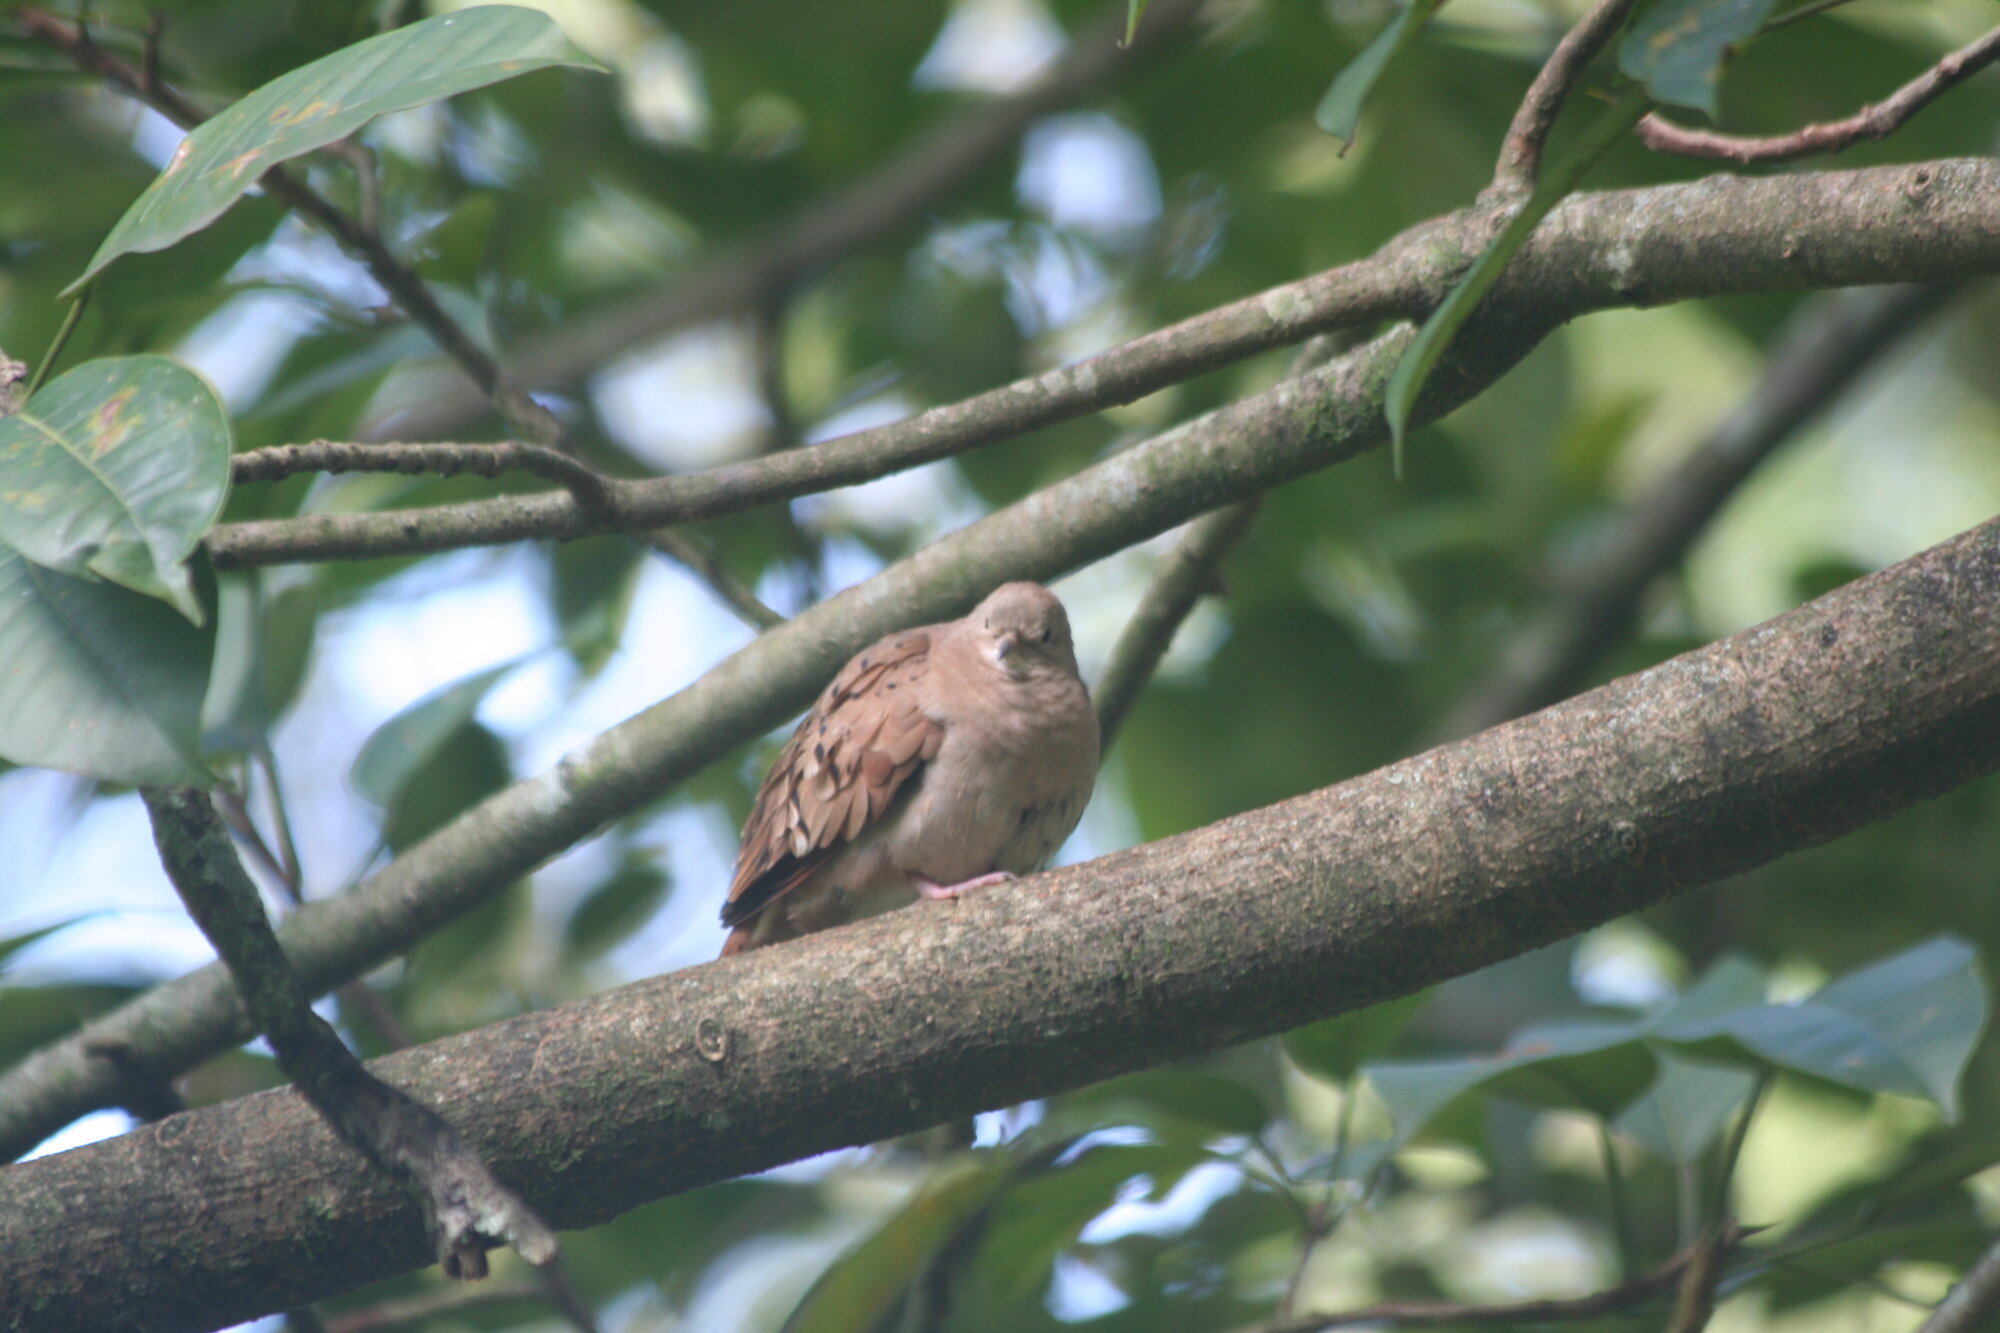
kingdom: Animalia
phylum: Chordata
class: Aves
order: Columbiformes
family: Columbidae
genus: Columbina
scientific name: Columbina talpacoti
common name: Ruddy ground dove
